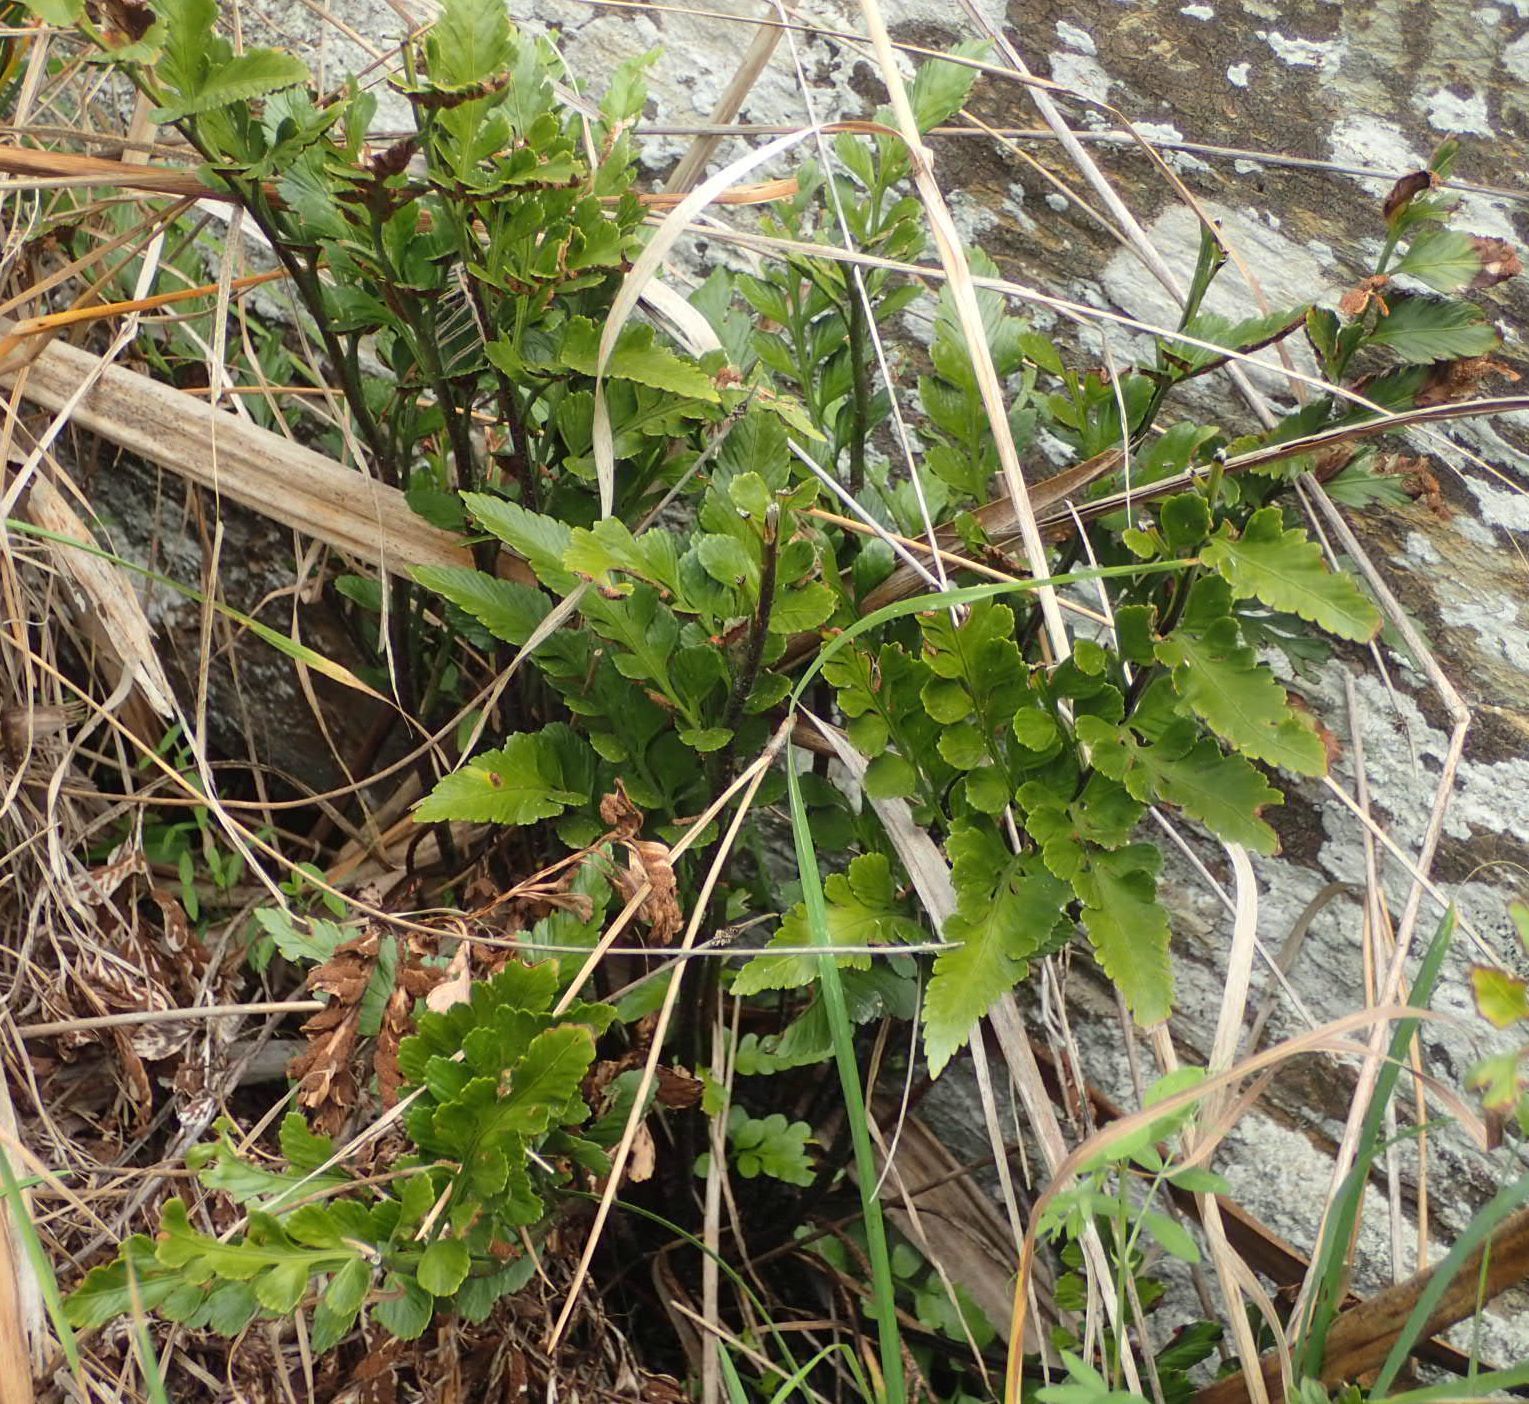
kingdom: Plantae
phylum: Tracheophyta
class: Polypodiopsida
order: Polypodiales
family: Aspleniaceae
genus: Asplenium
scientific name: Asplenium obtusatum
